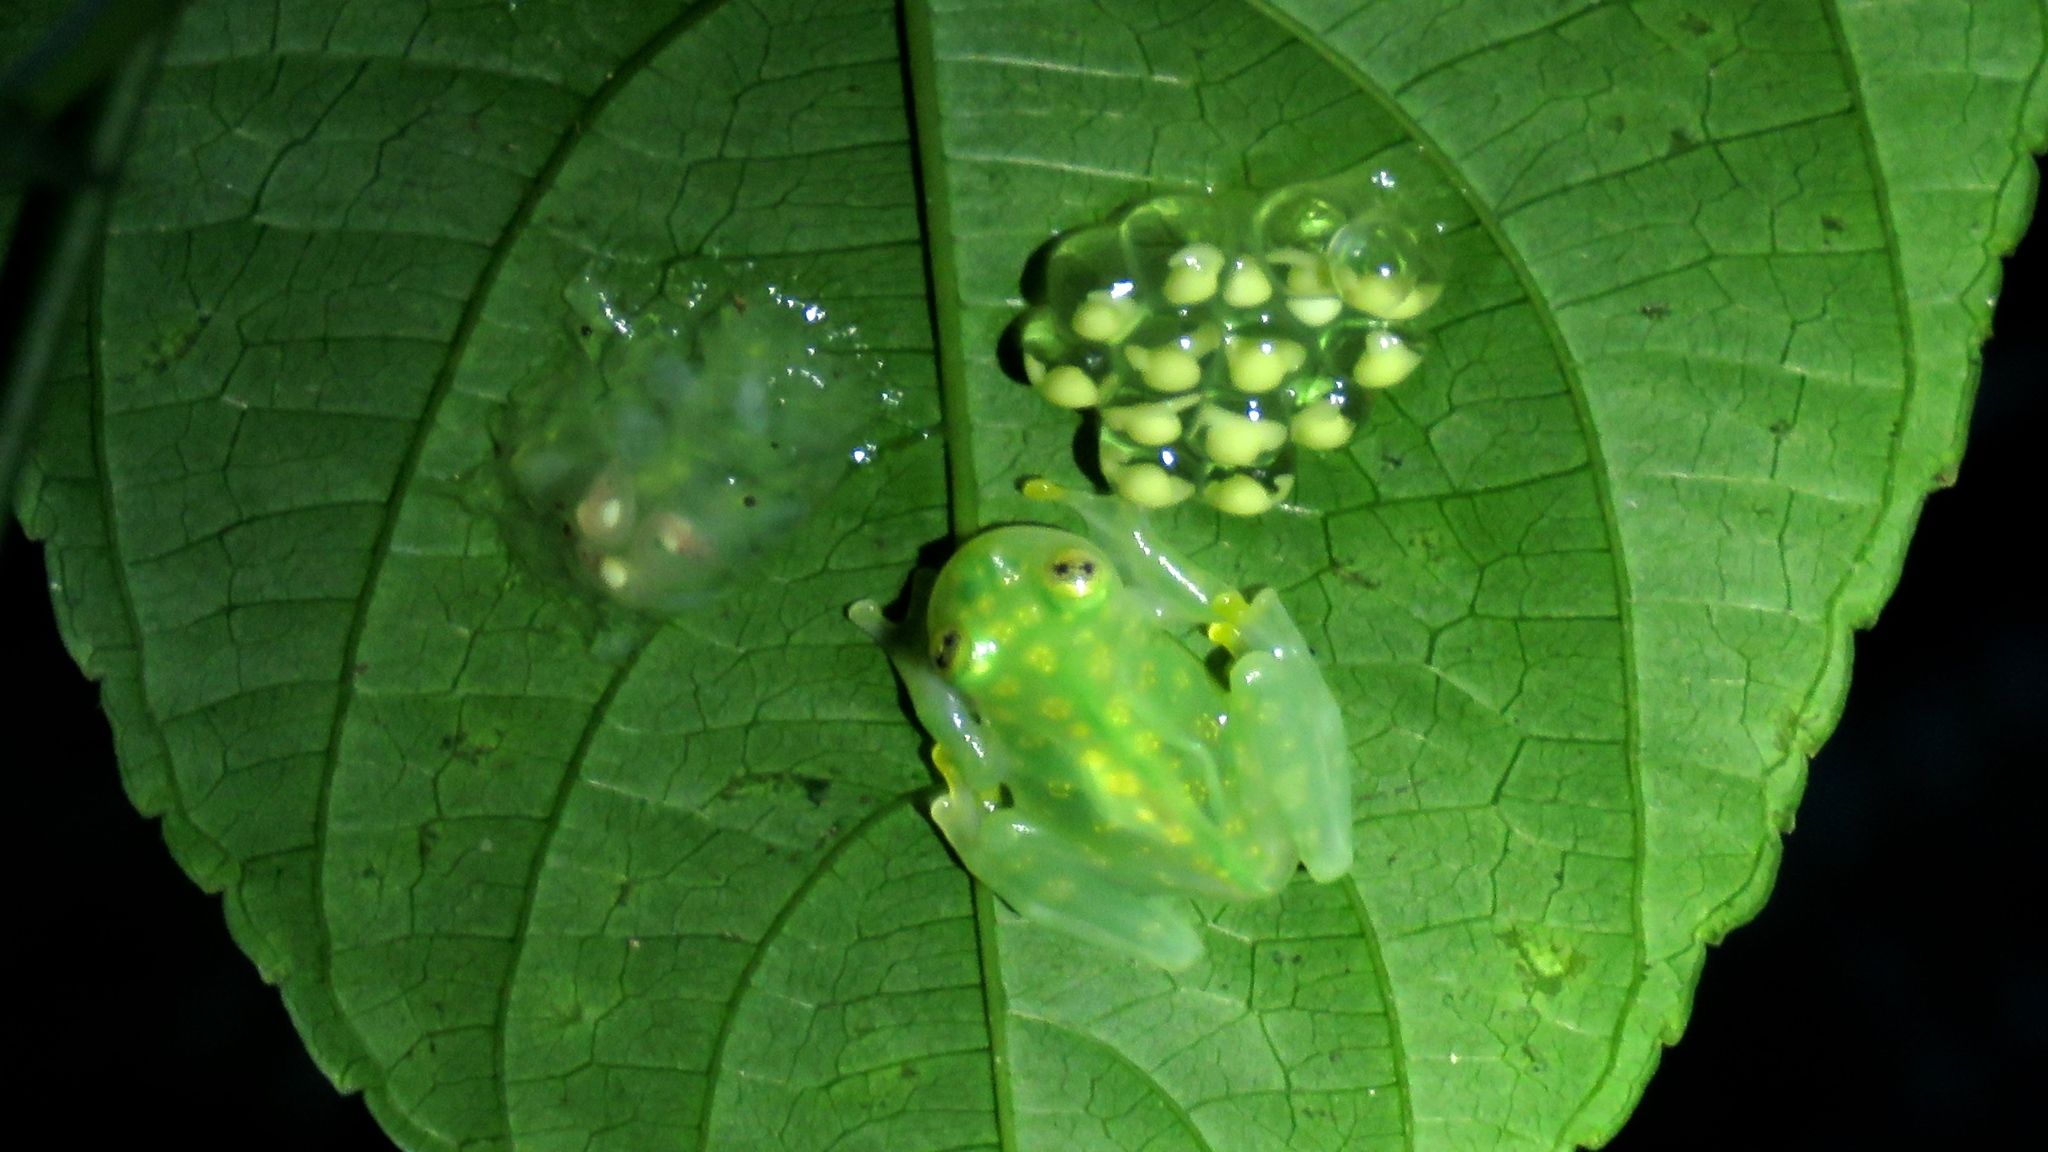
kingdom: Animalia
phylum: Chordata
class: Amphibia
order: Anura
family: Centrolenidae
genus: Hyalinobatrachium
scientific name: Hyalinobatrachium valerioi
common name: Reticulated glass frog
